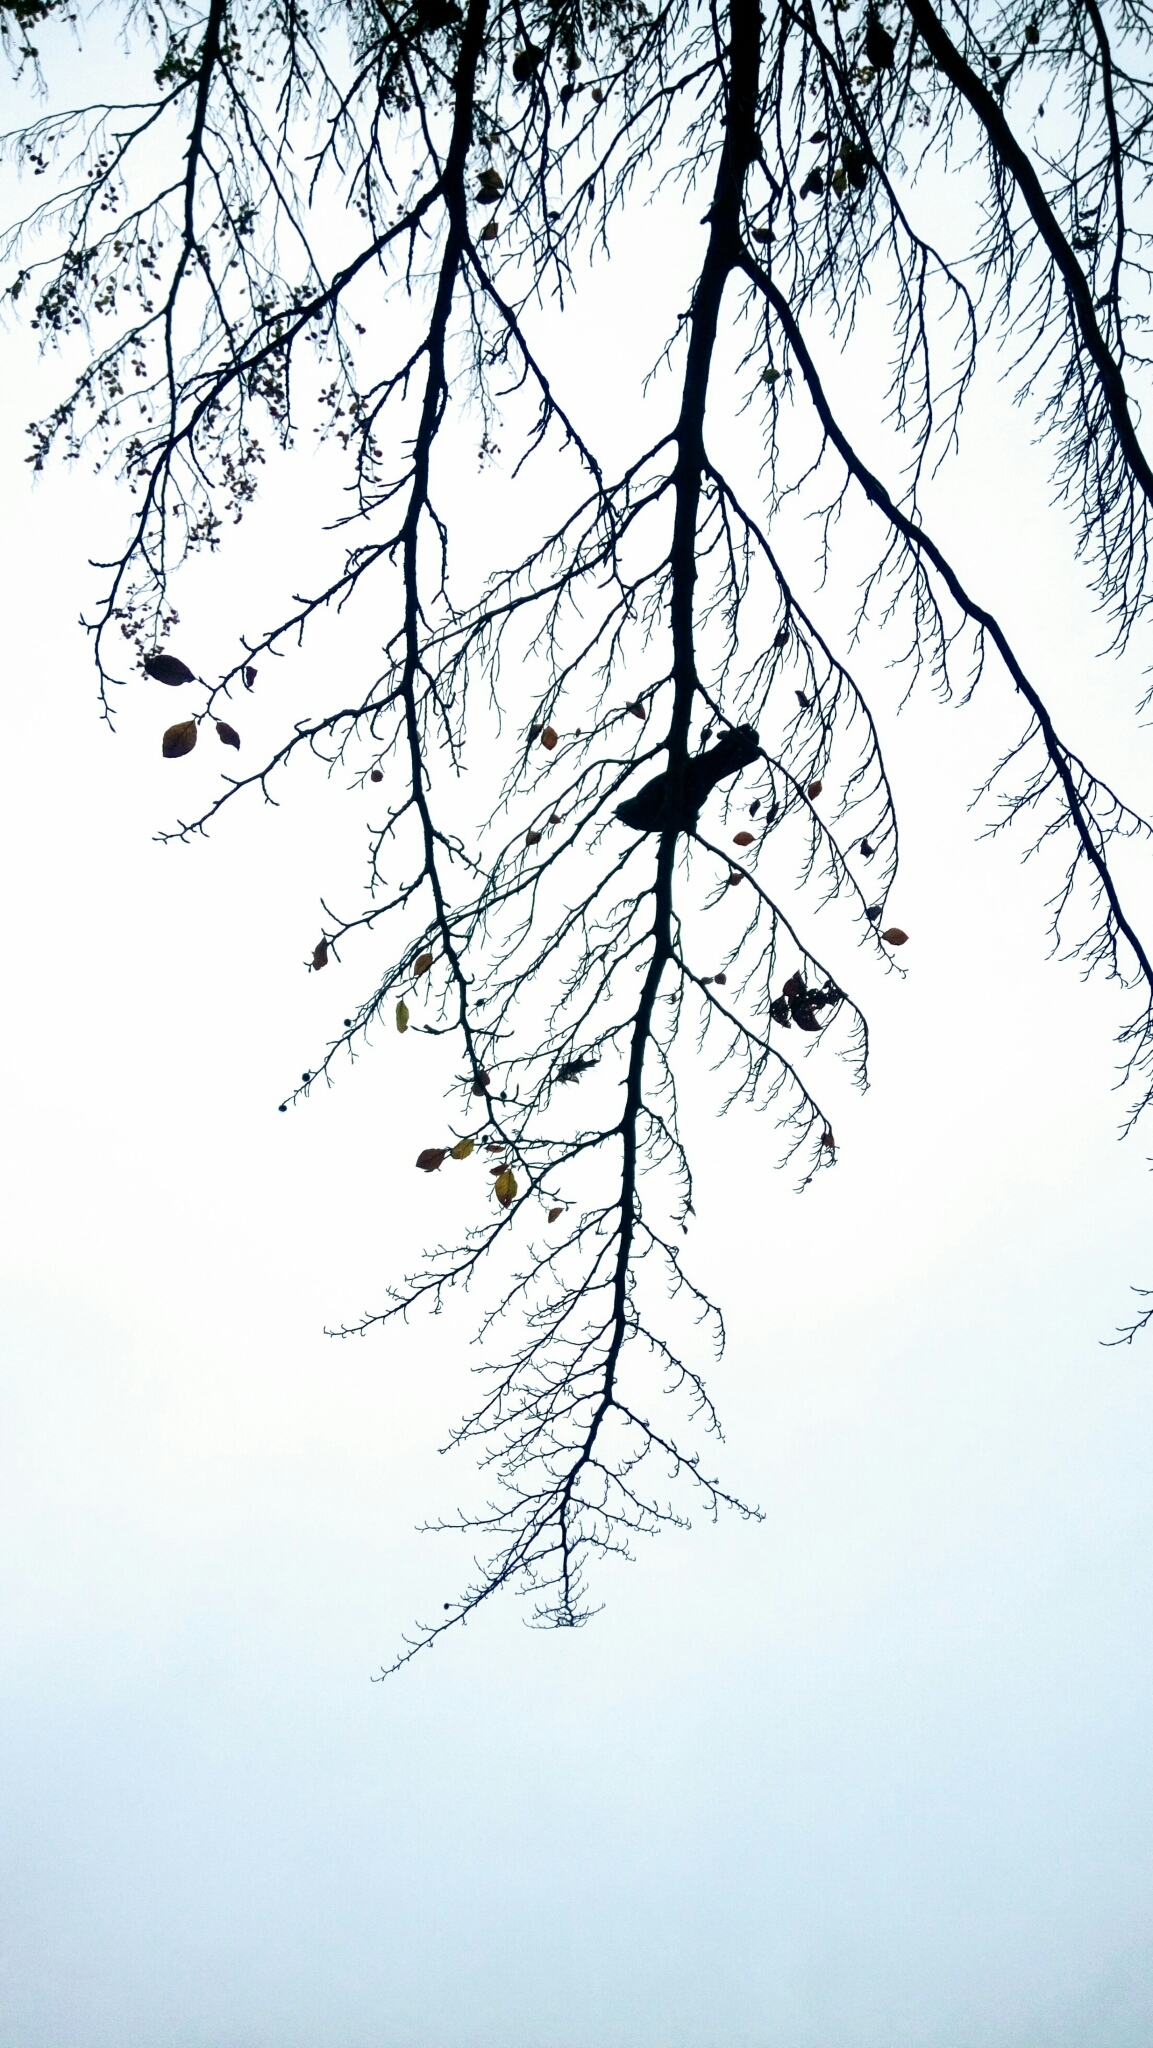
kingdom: Animalia
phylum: Chordata
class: Aves
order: Passeriformes
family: Corvidae
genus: Corvus
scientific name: Corvus brachyrhynchos
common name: American crow
